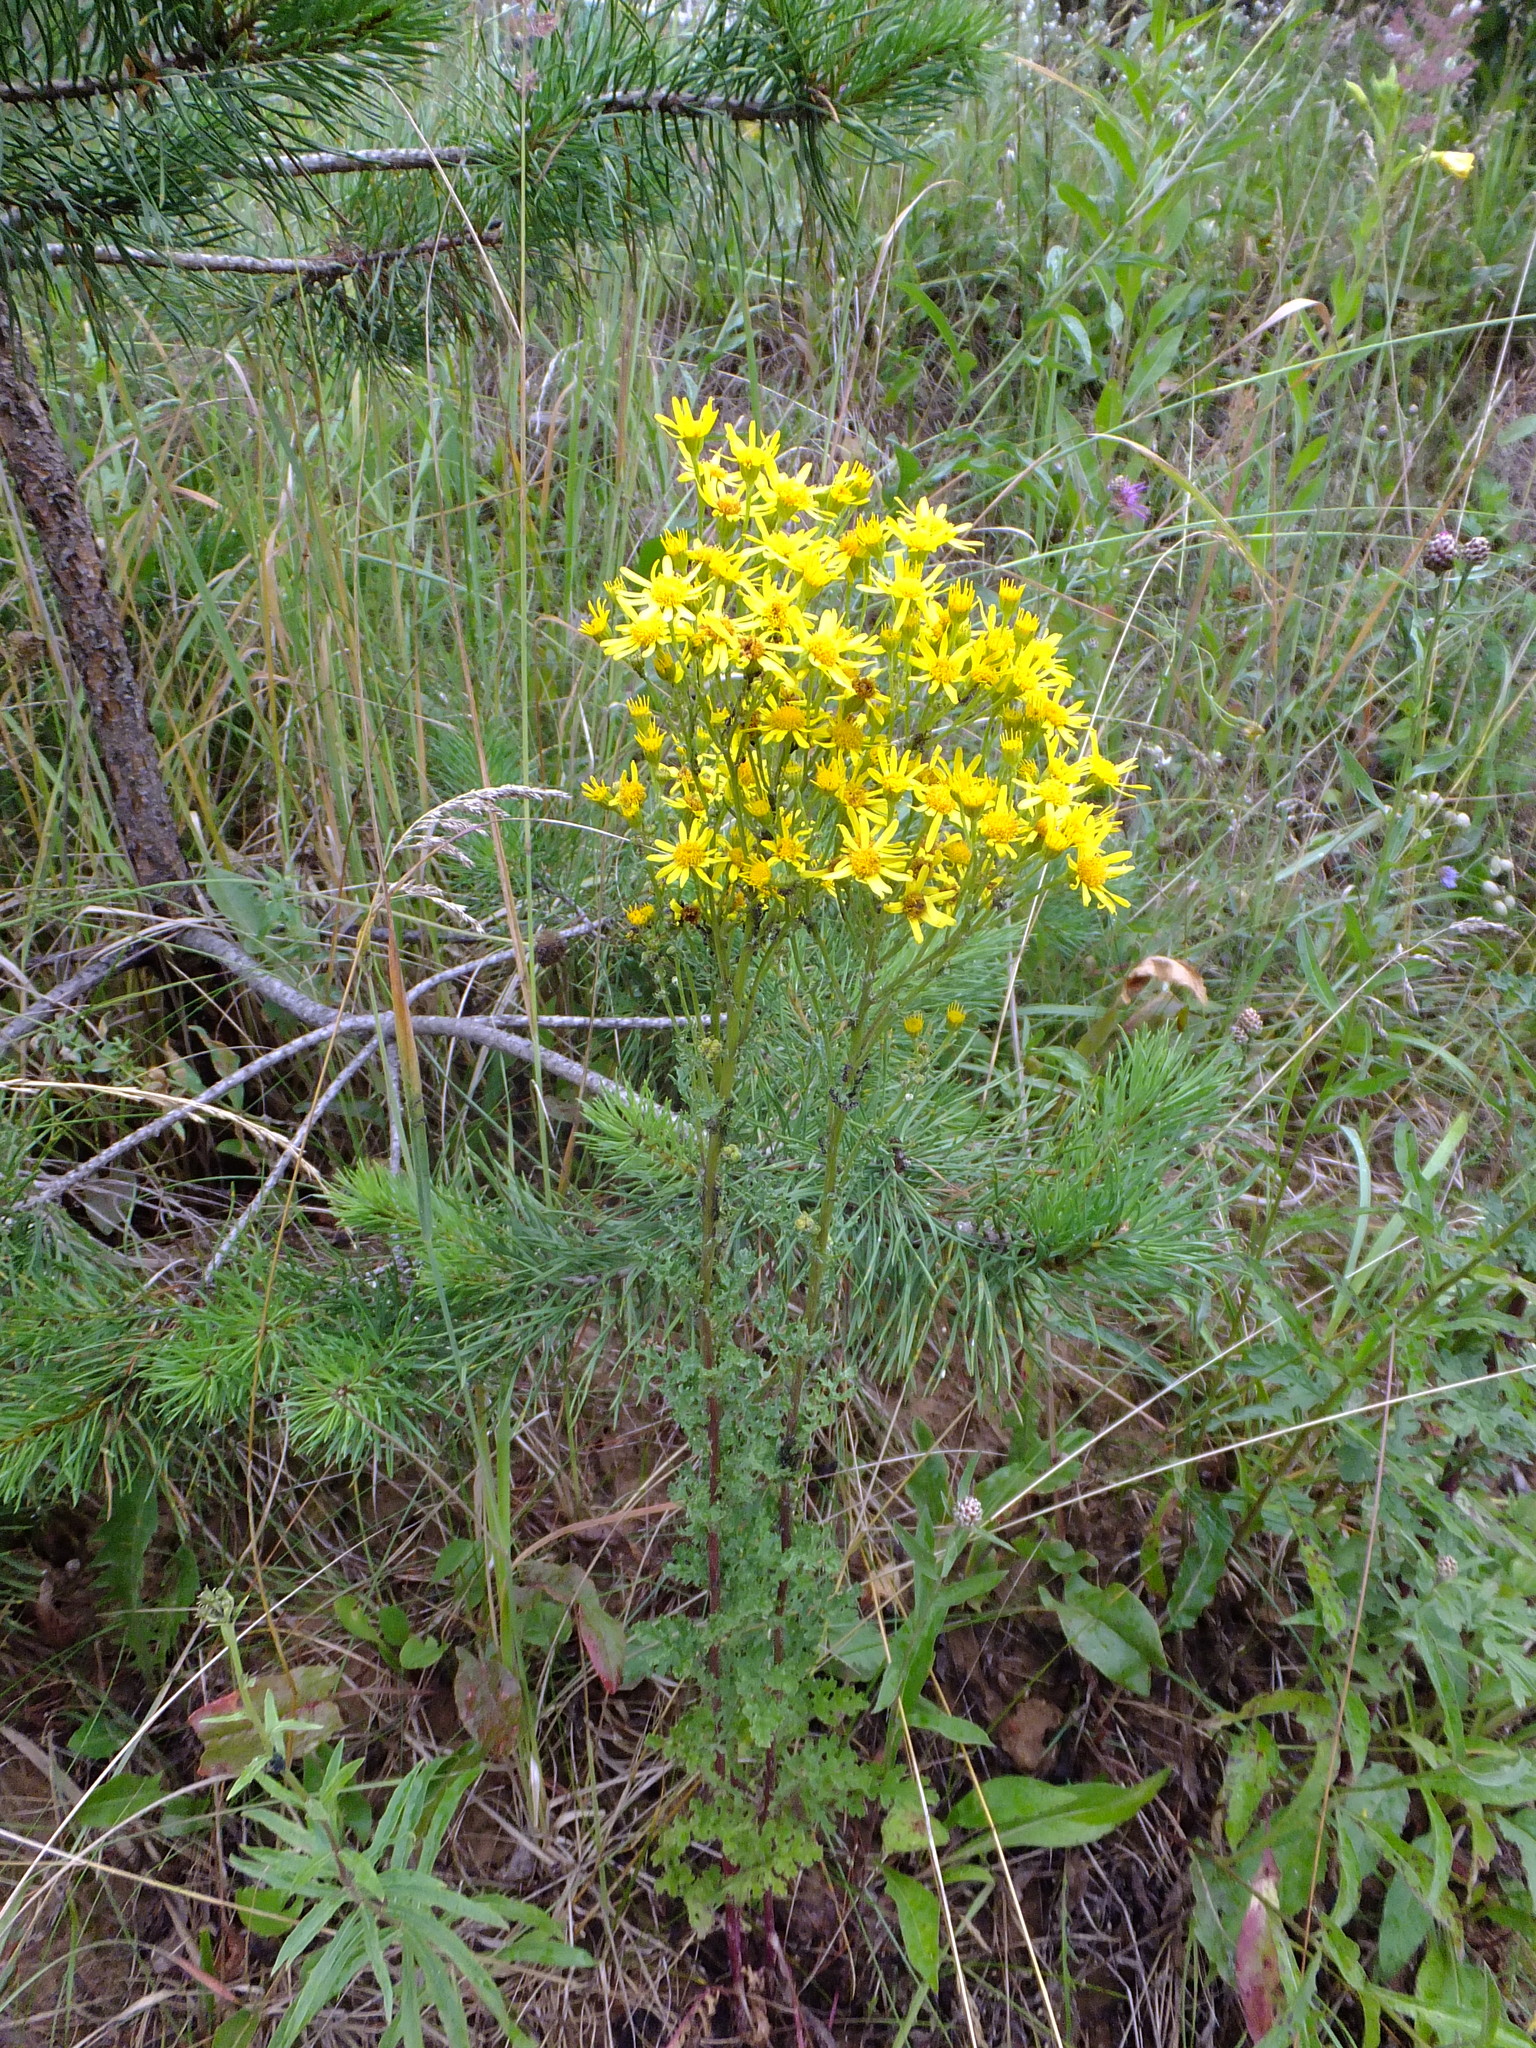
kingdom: Plantae
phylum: Tracheophyta
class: Magnoliopsida
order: Asterales
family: Asteraceae
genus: Jacobaea
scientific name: Jacobaea vulgaris
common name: Stinking willie
